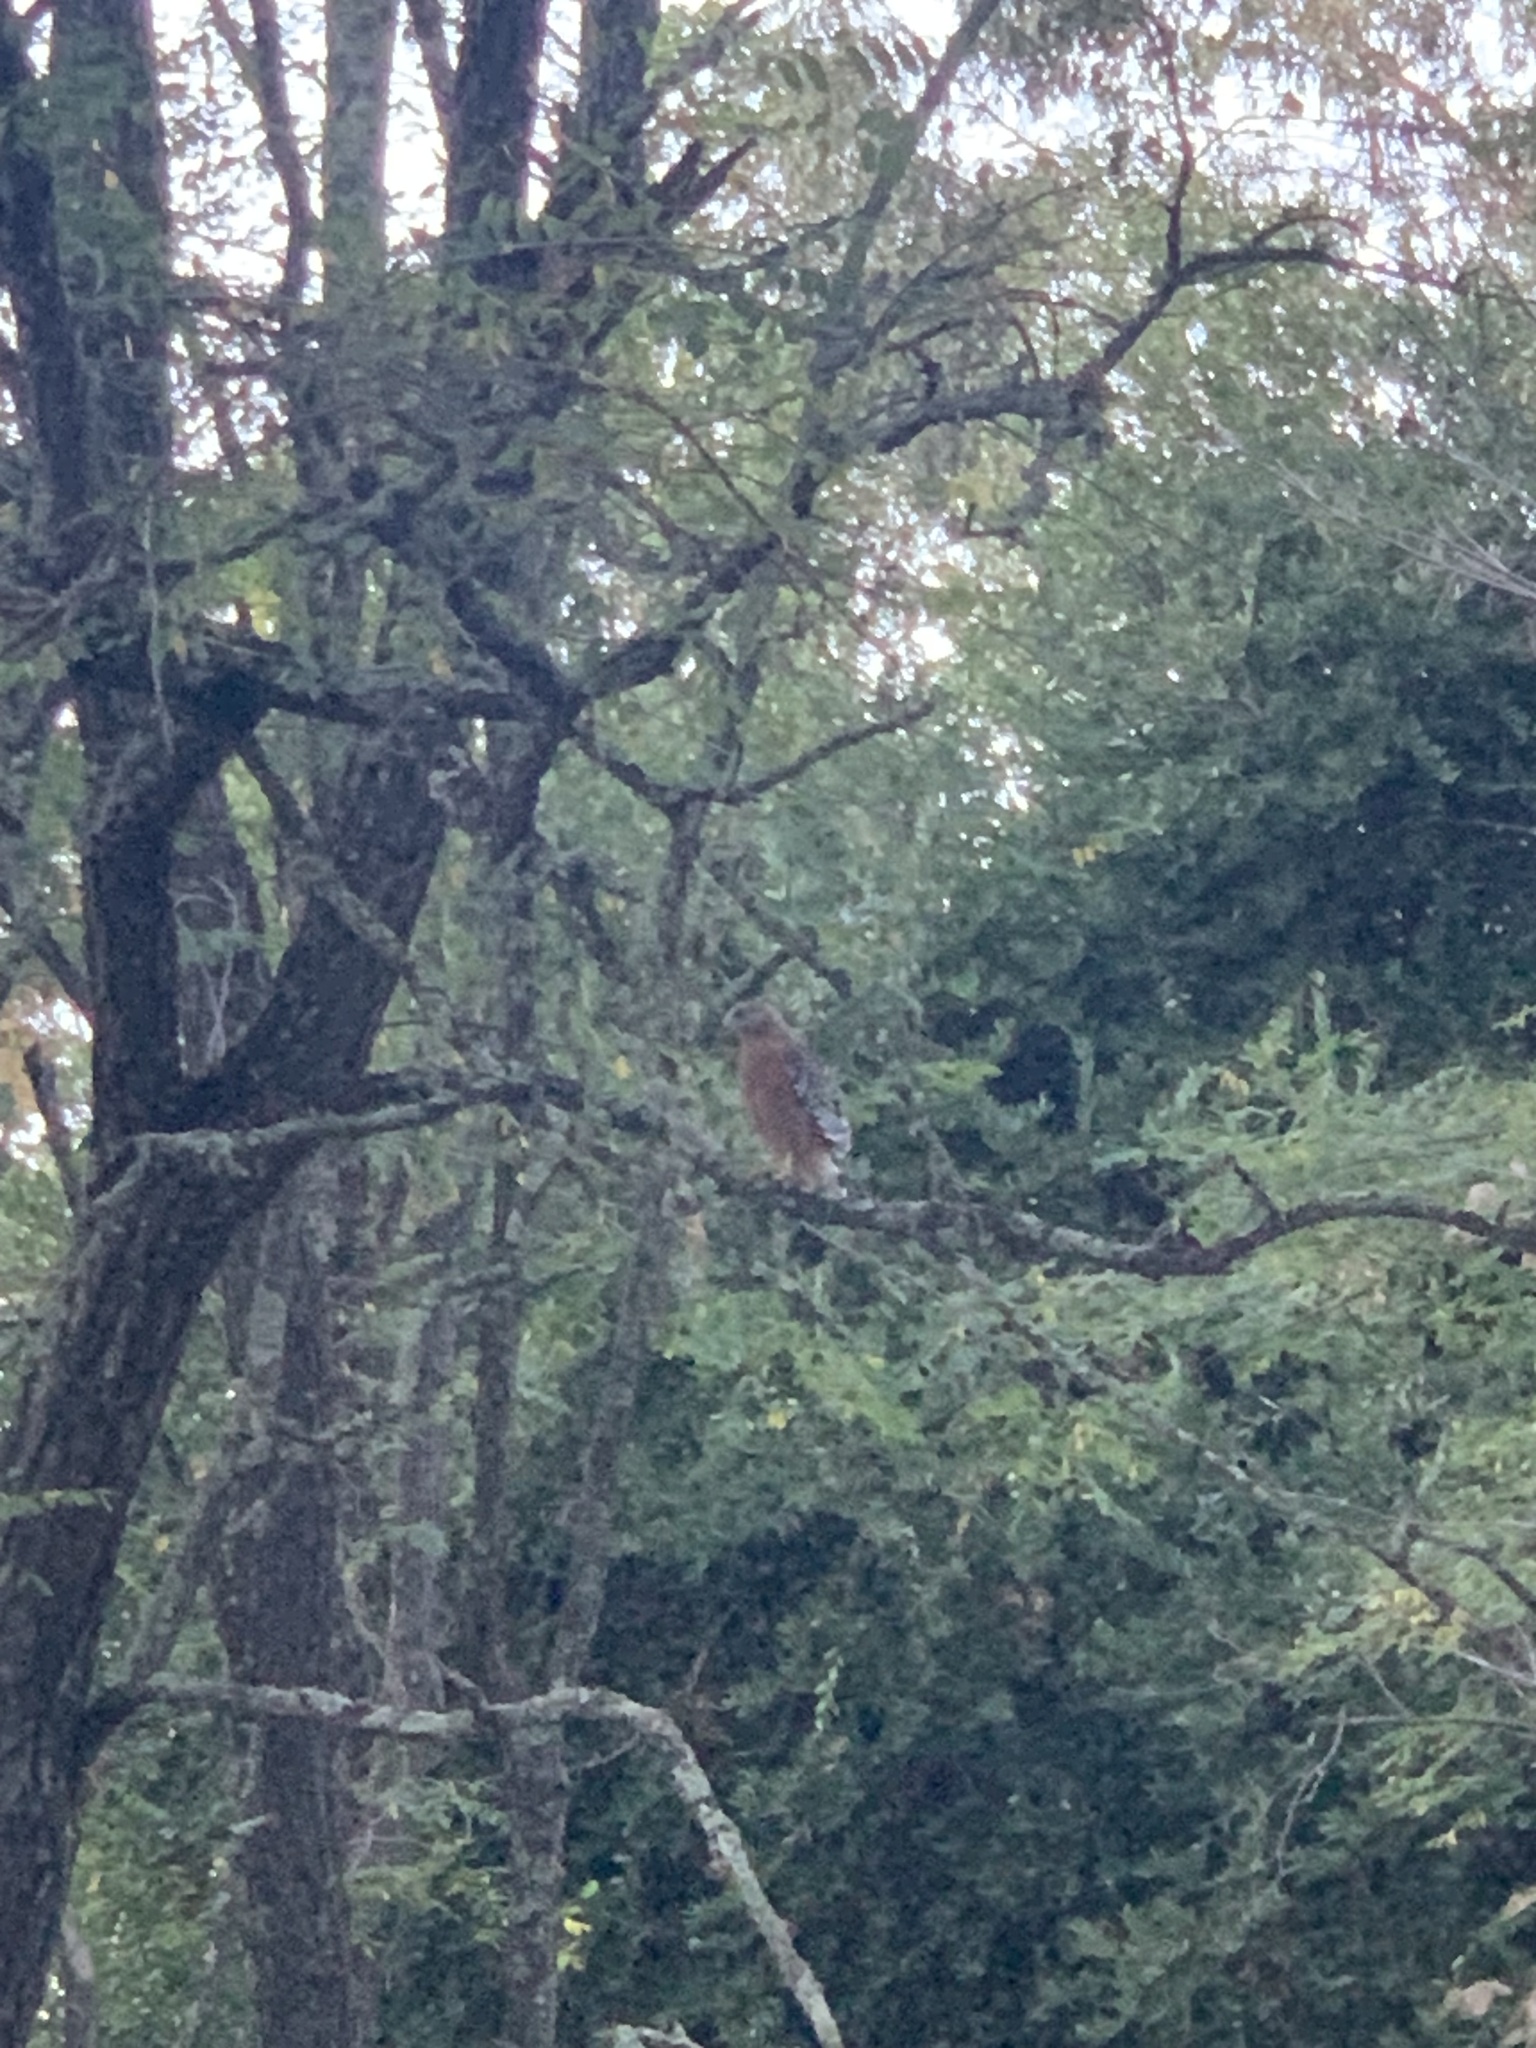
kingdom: Animalia
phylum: Chordata
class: Aves
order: Accipitriformes
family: Accipitridae
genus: Buteo
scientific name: Buteo lineatus
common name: Red-shouldered hawk
